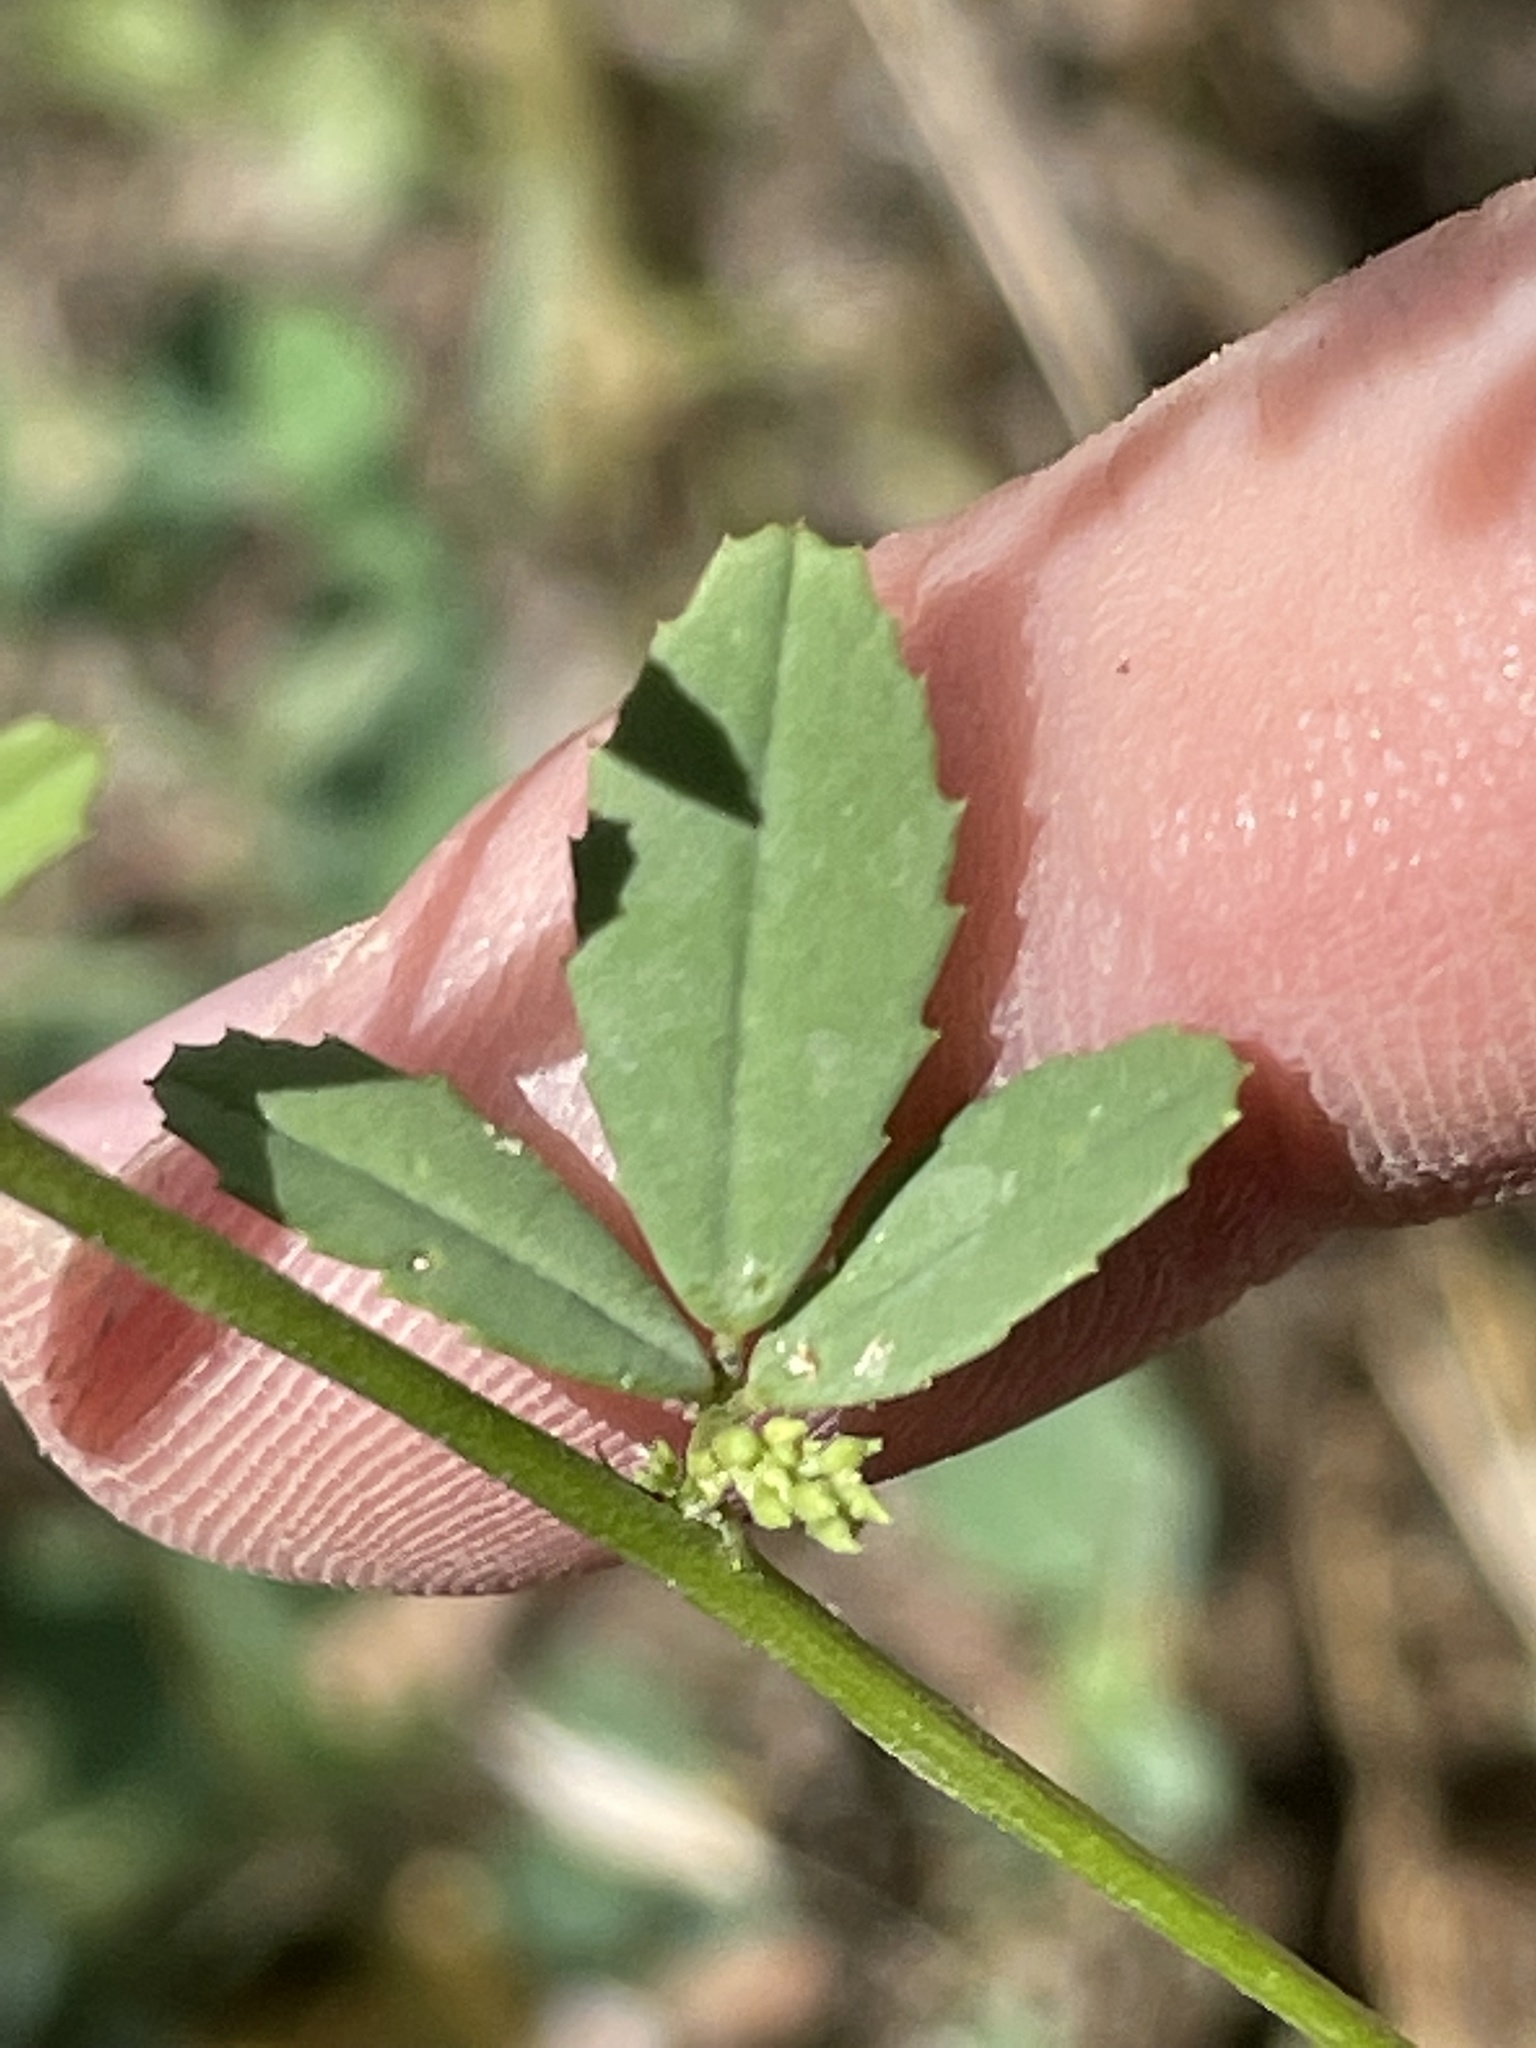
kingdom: Plantae
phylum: Tracheophyta
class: Magnoliopsida
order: Fabales
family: Fabaceae
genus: Melilotus
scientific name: Melilotus albus
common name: White melilot
